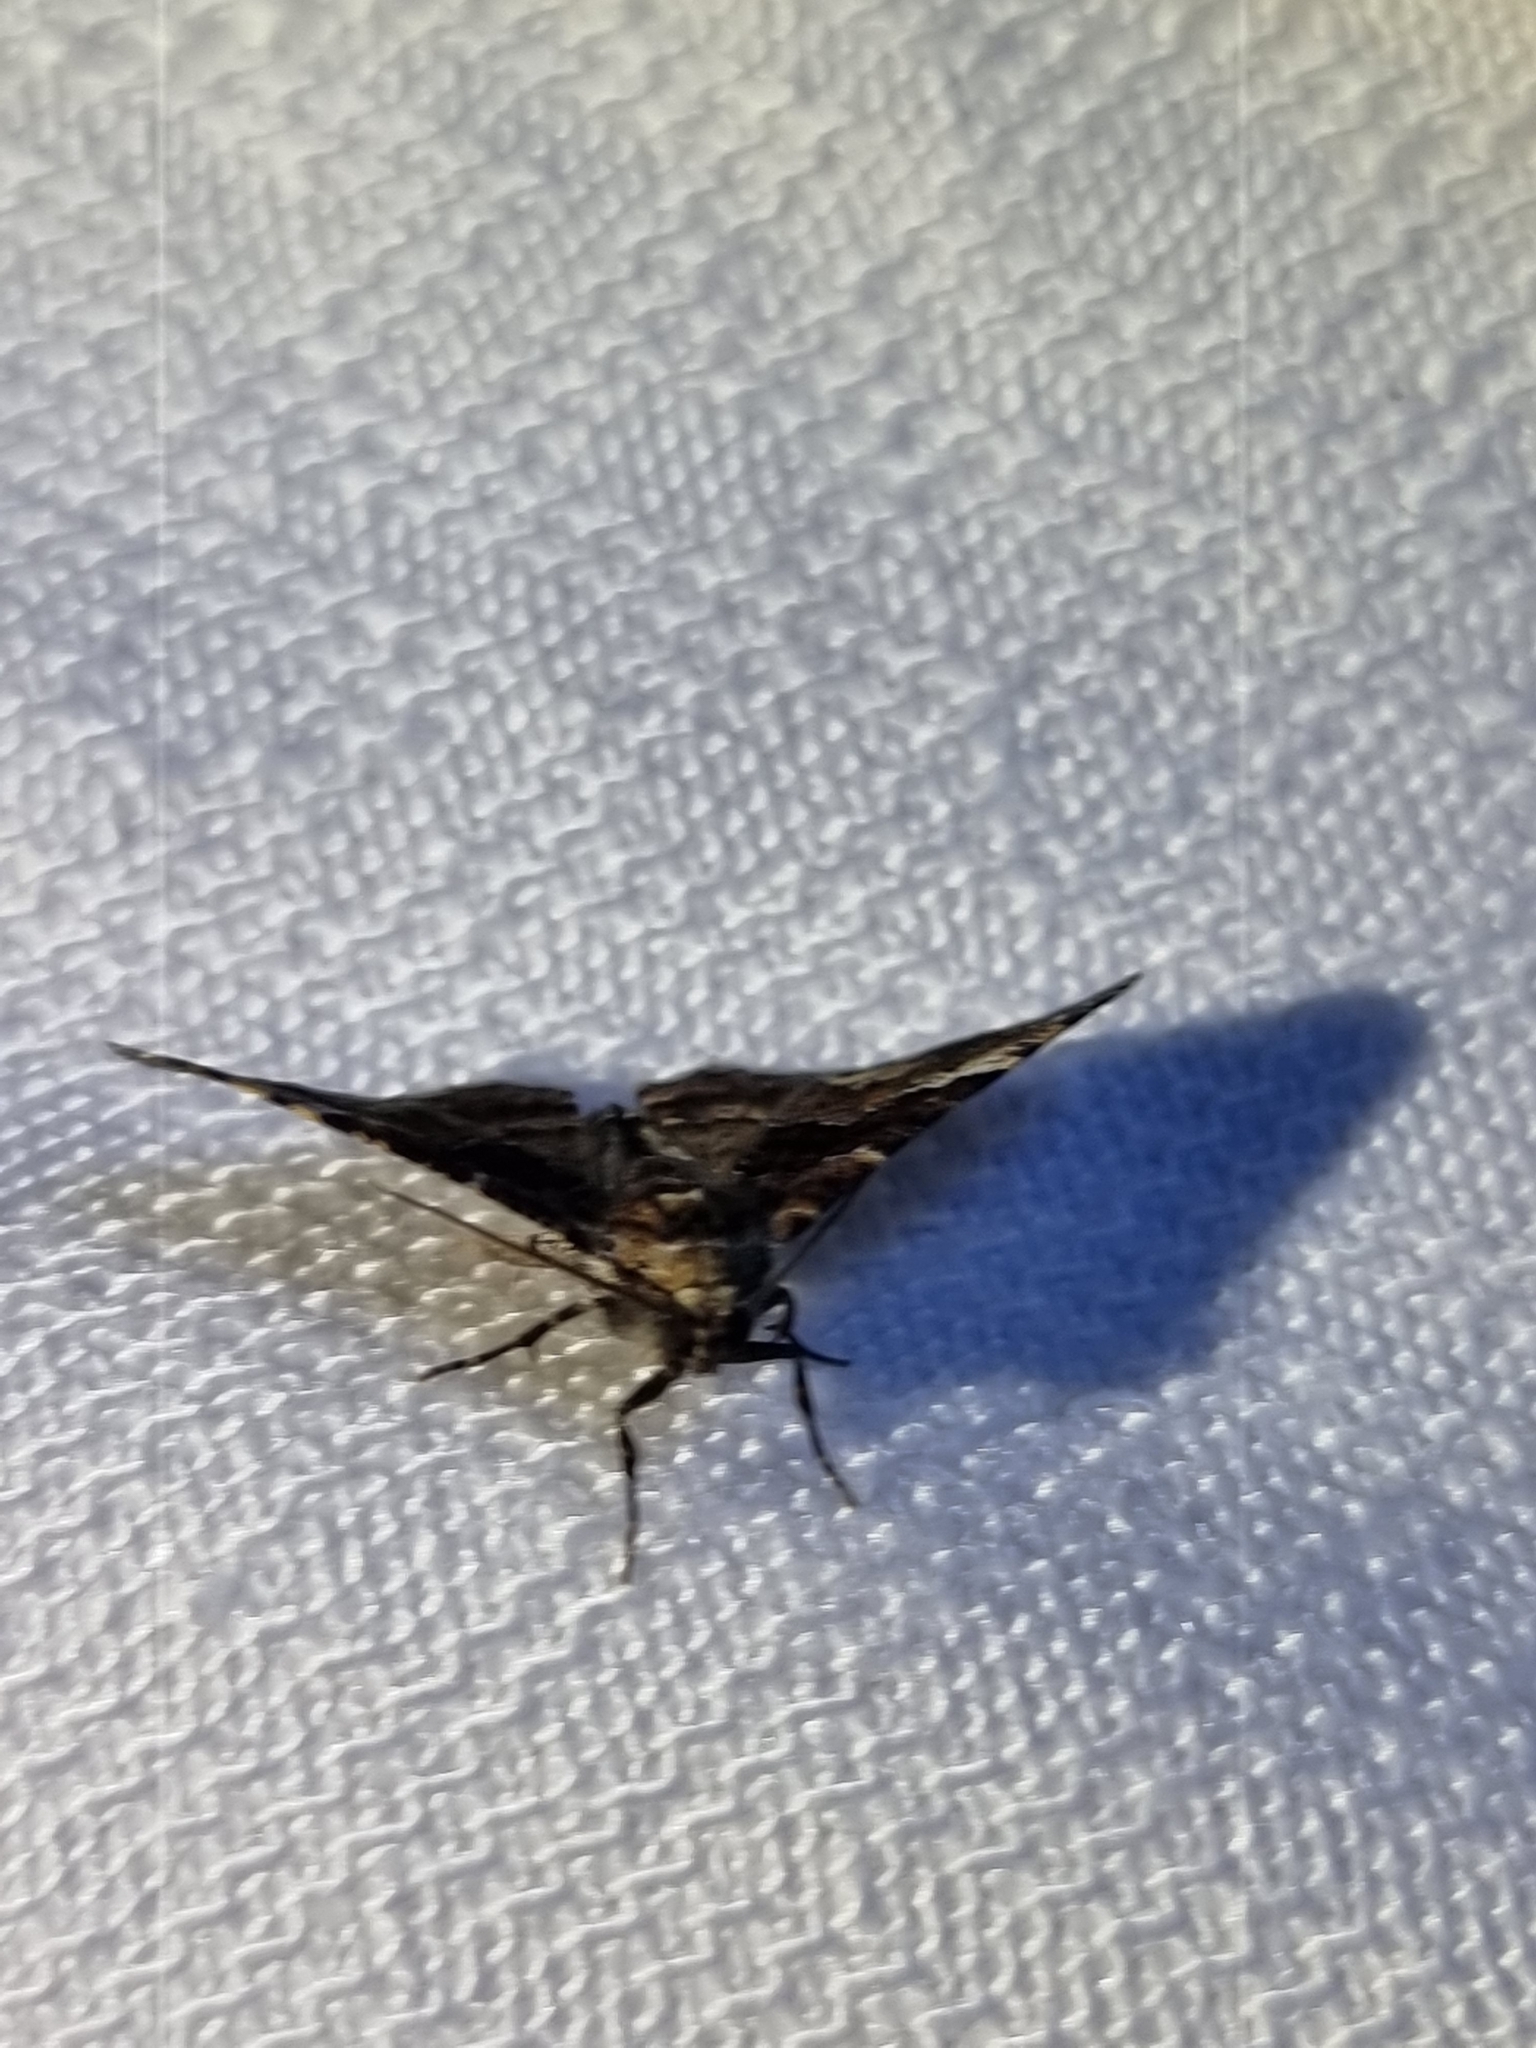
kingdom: Animalia
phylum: Arthropoda
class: Insecta
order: Lepidoptera
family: Geometridae
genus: Aporoctena
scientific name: Aporoctena scierodes
